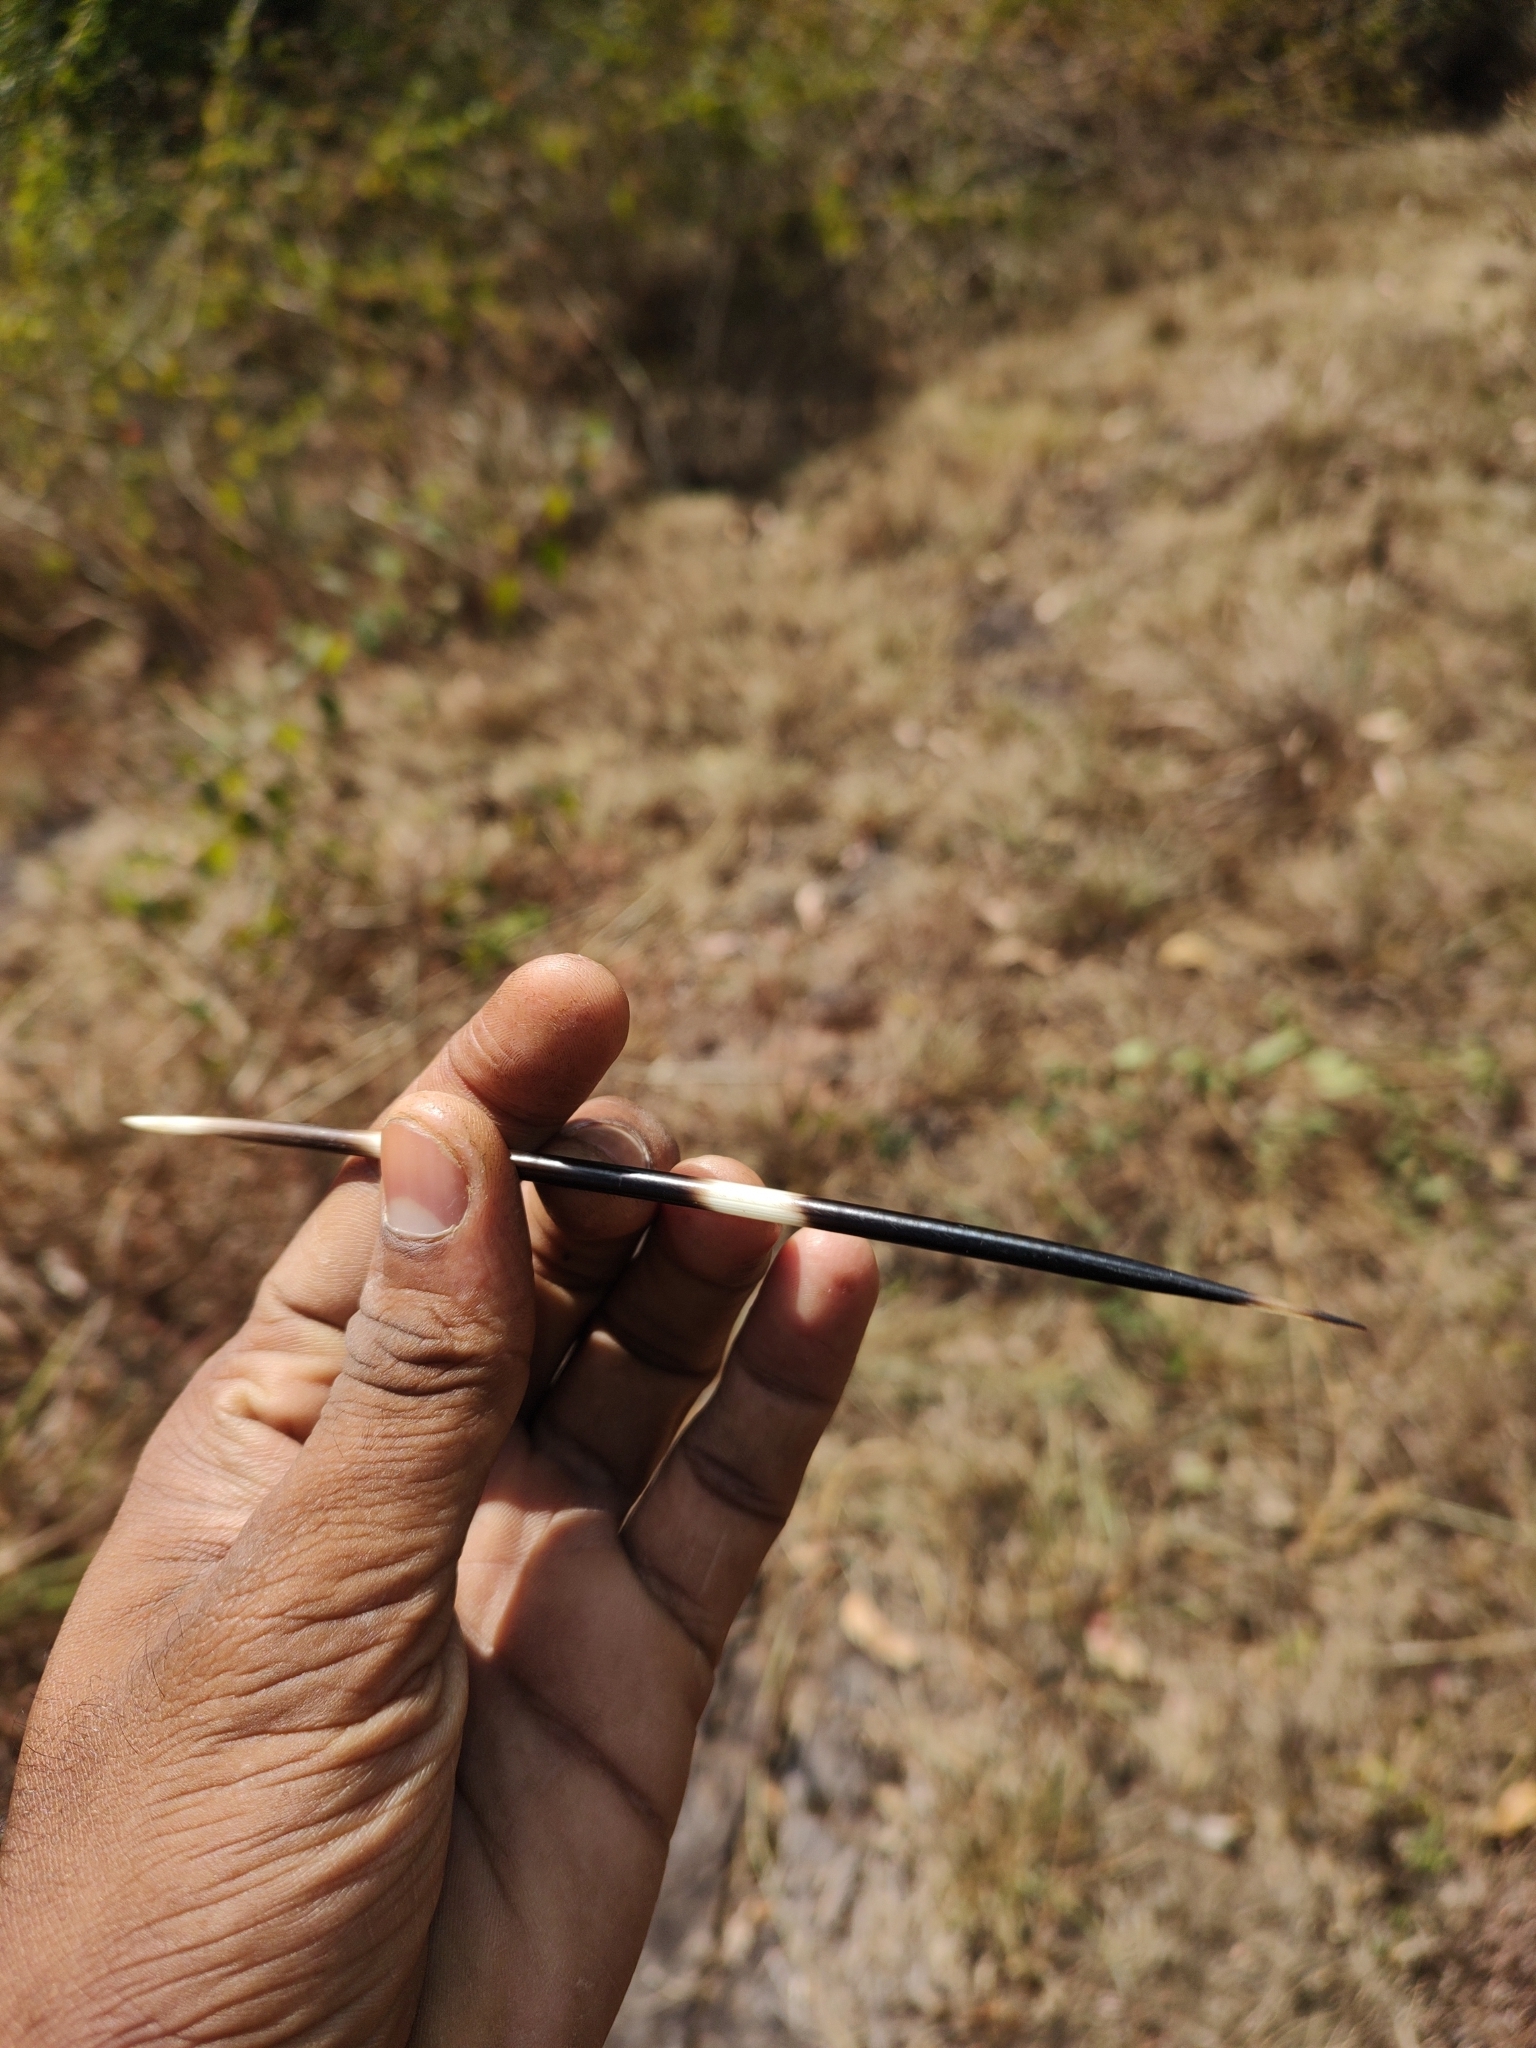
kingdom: Animalia
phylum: Chordata
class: Mammalia
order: Rodentia
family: Hystricidae
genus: Hystrix
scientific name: Hystrix indica
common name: Indian crested porcupine
